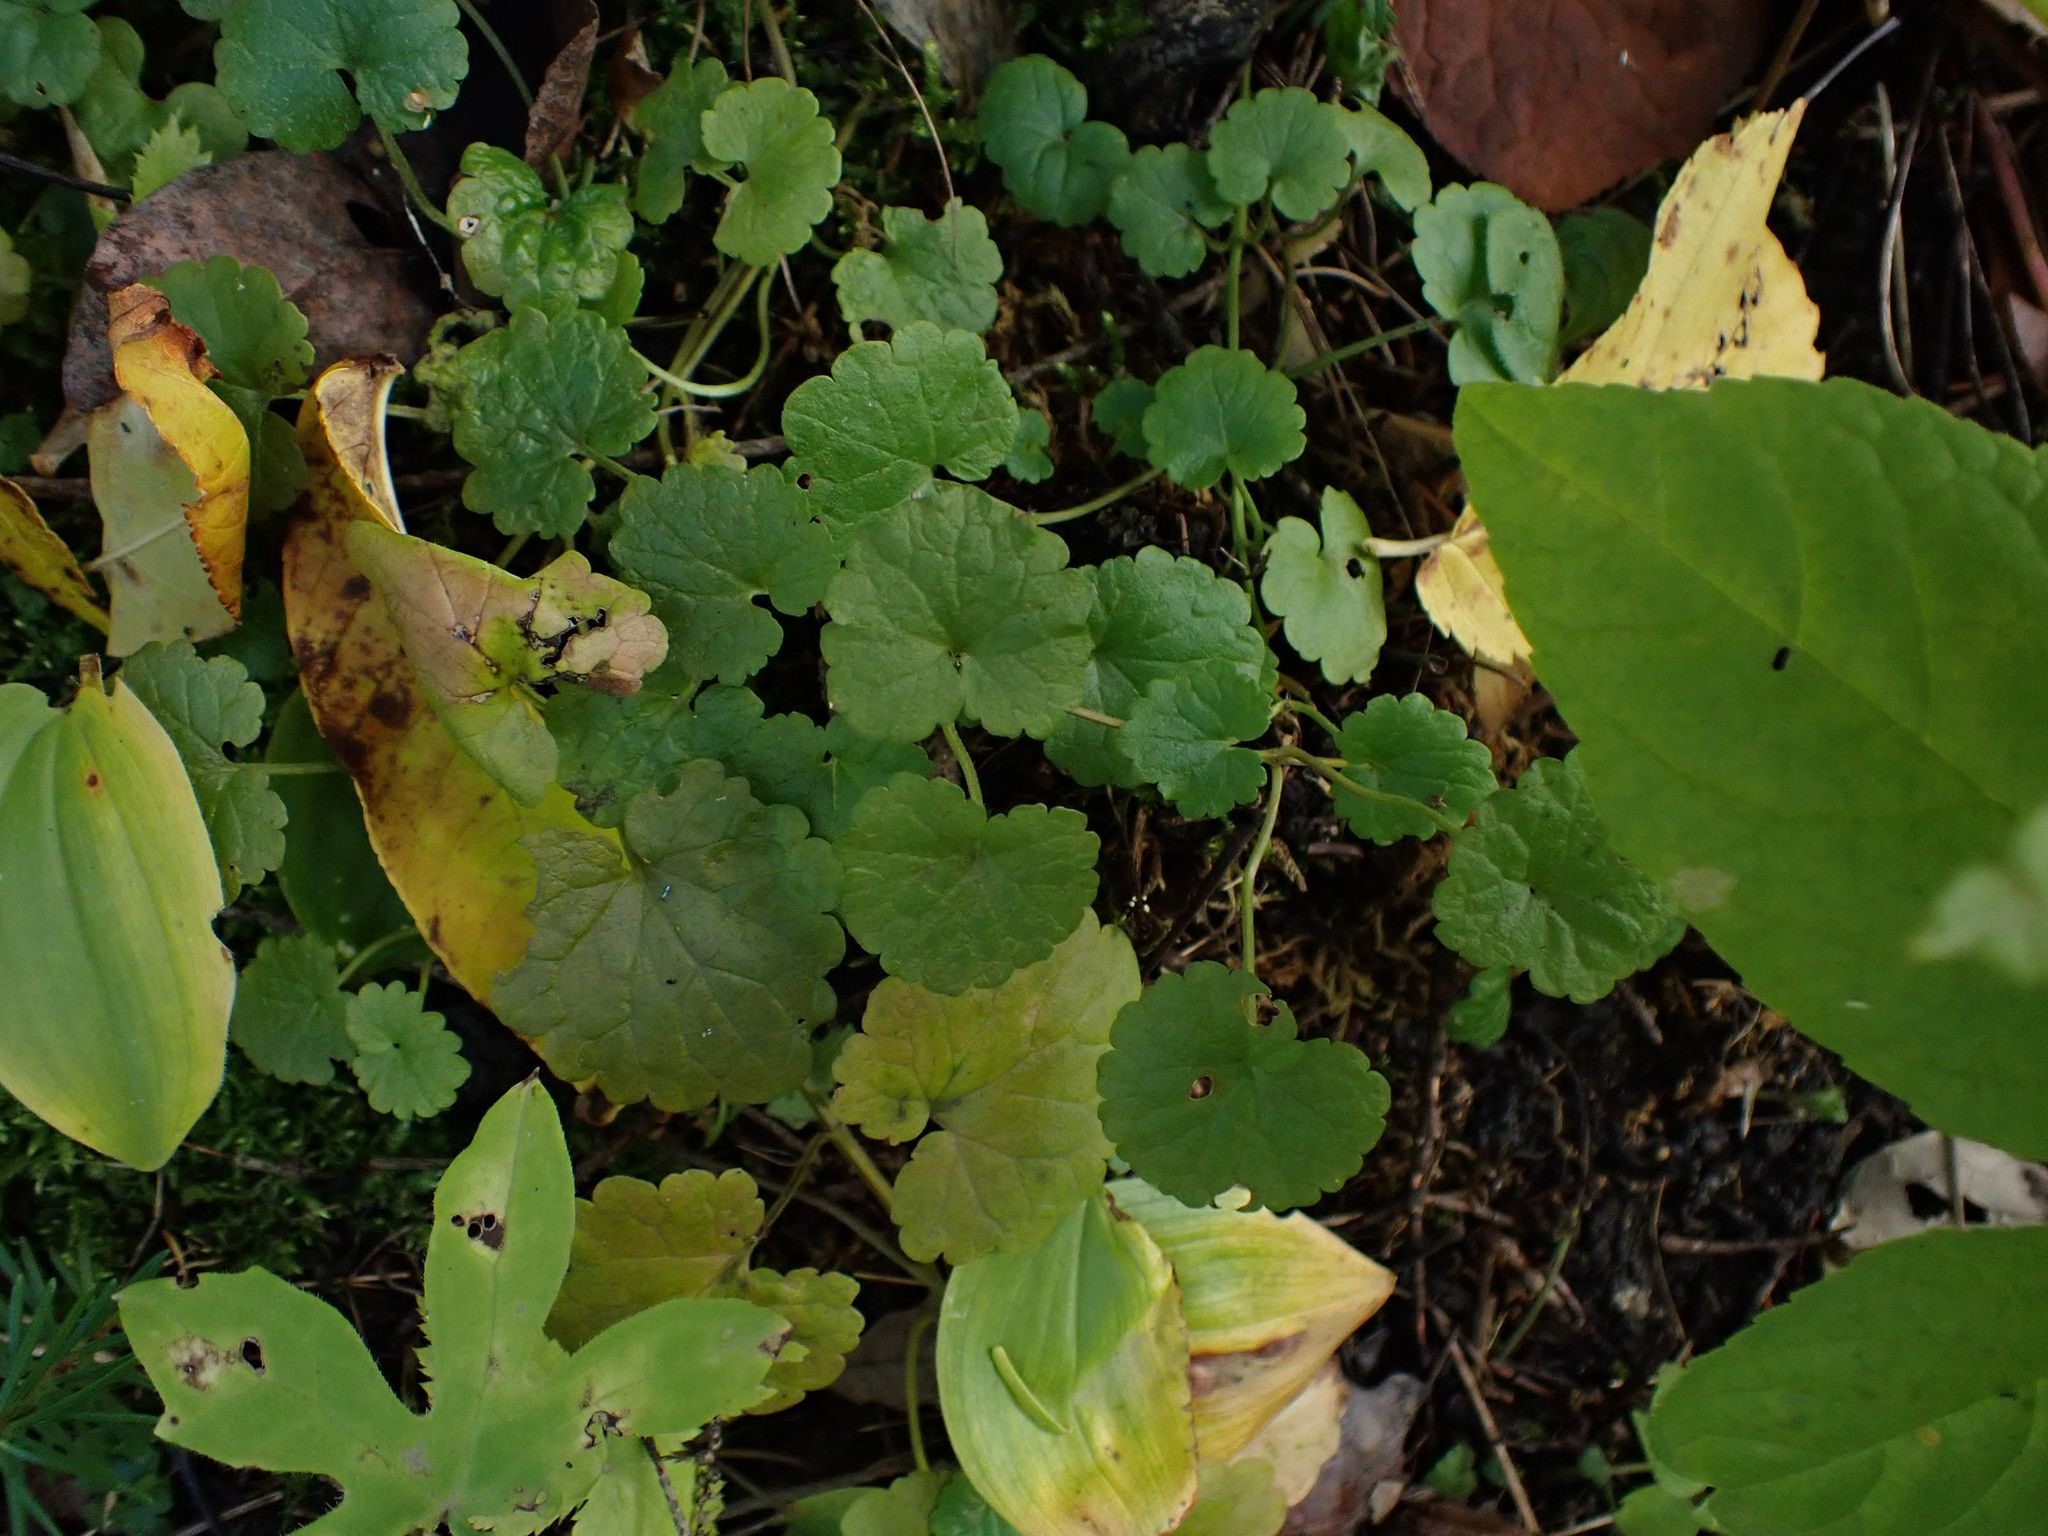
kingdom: Plantae
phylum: Tracheophyta
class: Magnoliopsida
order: Lamiales
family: Lamiaceae
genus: Glechoma
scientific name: Glechoma hederacea
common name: Ground ivy
